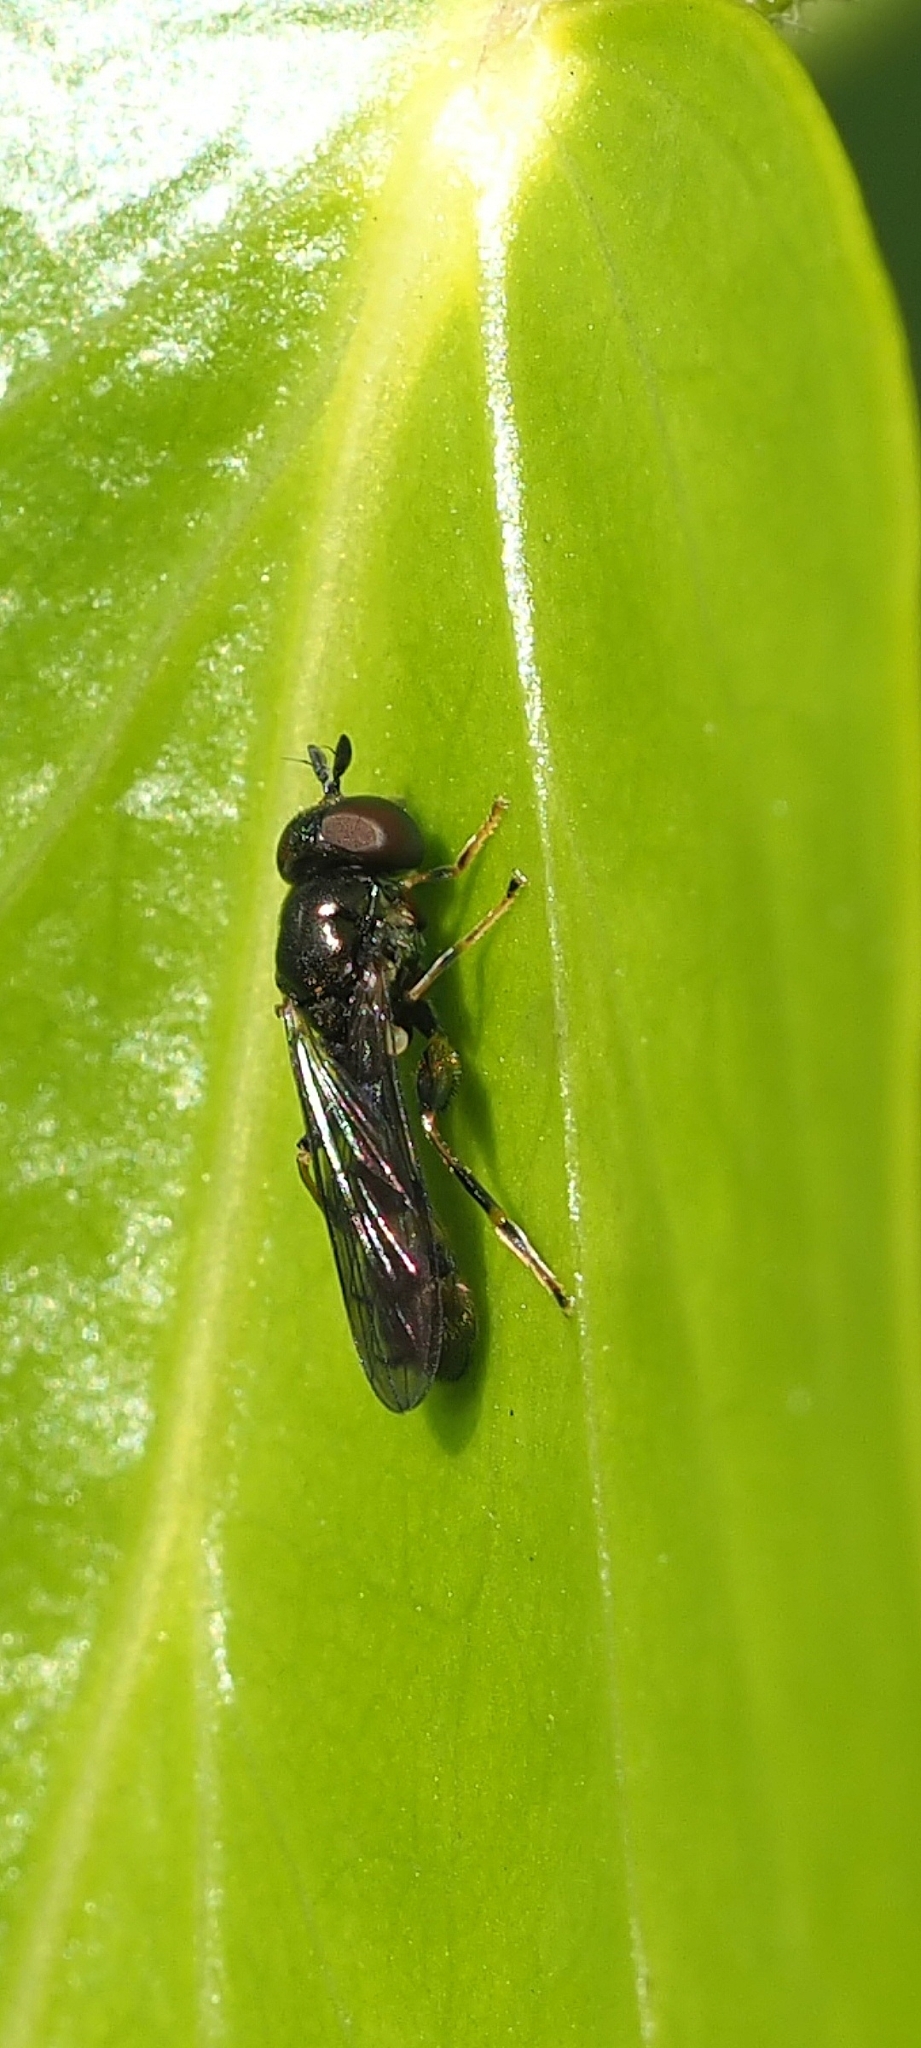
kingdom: Animalia
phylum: Arthropoda
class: Insecta
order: Diptera
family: Syrphidae
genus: Neoascia
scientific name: Neoascia
